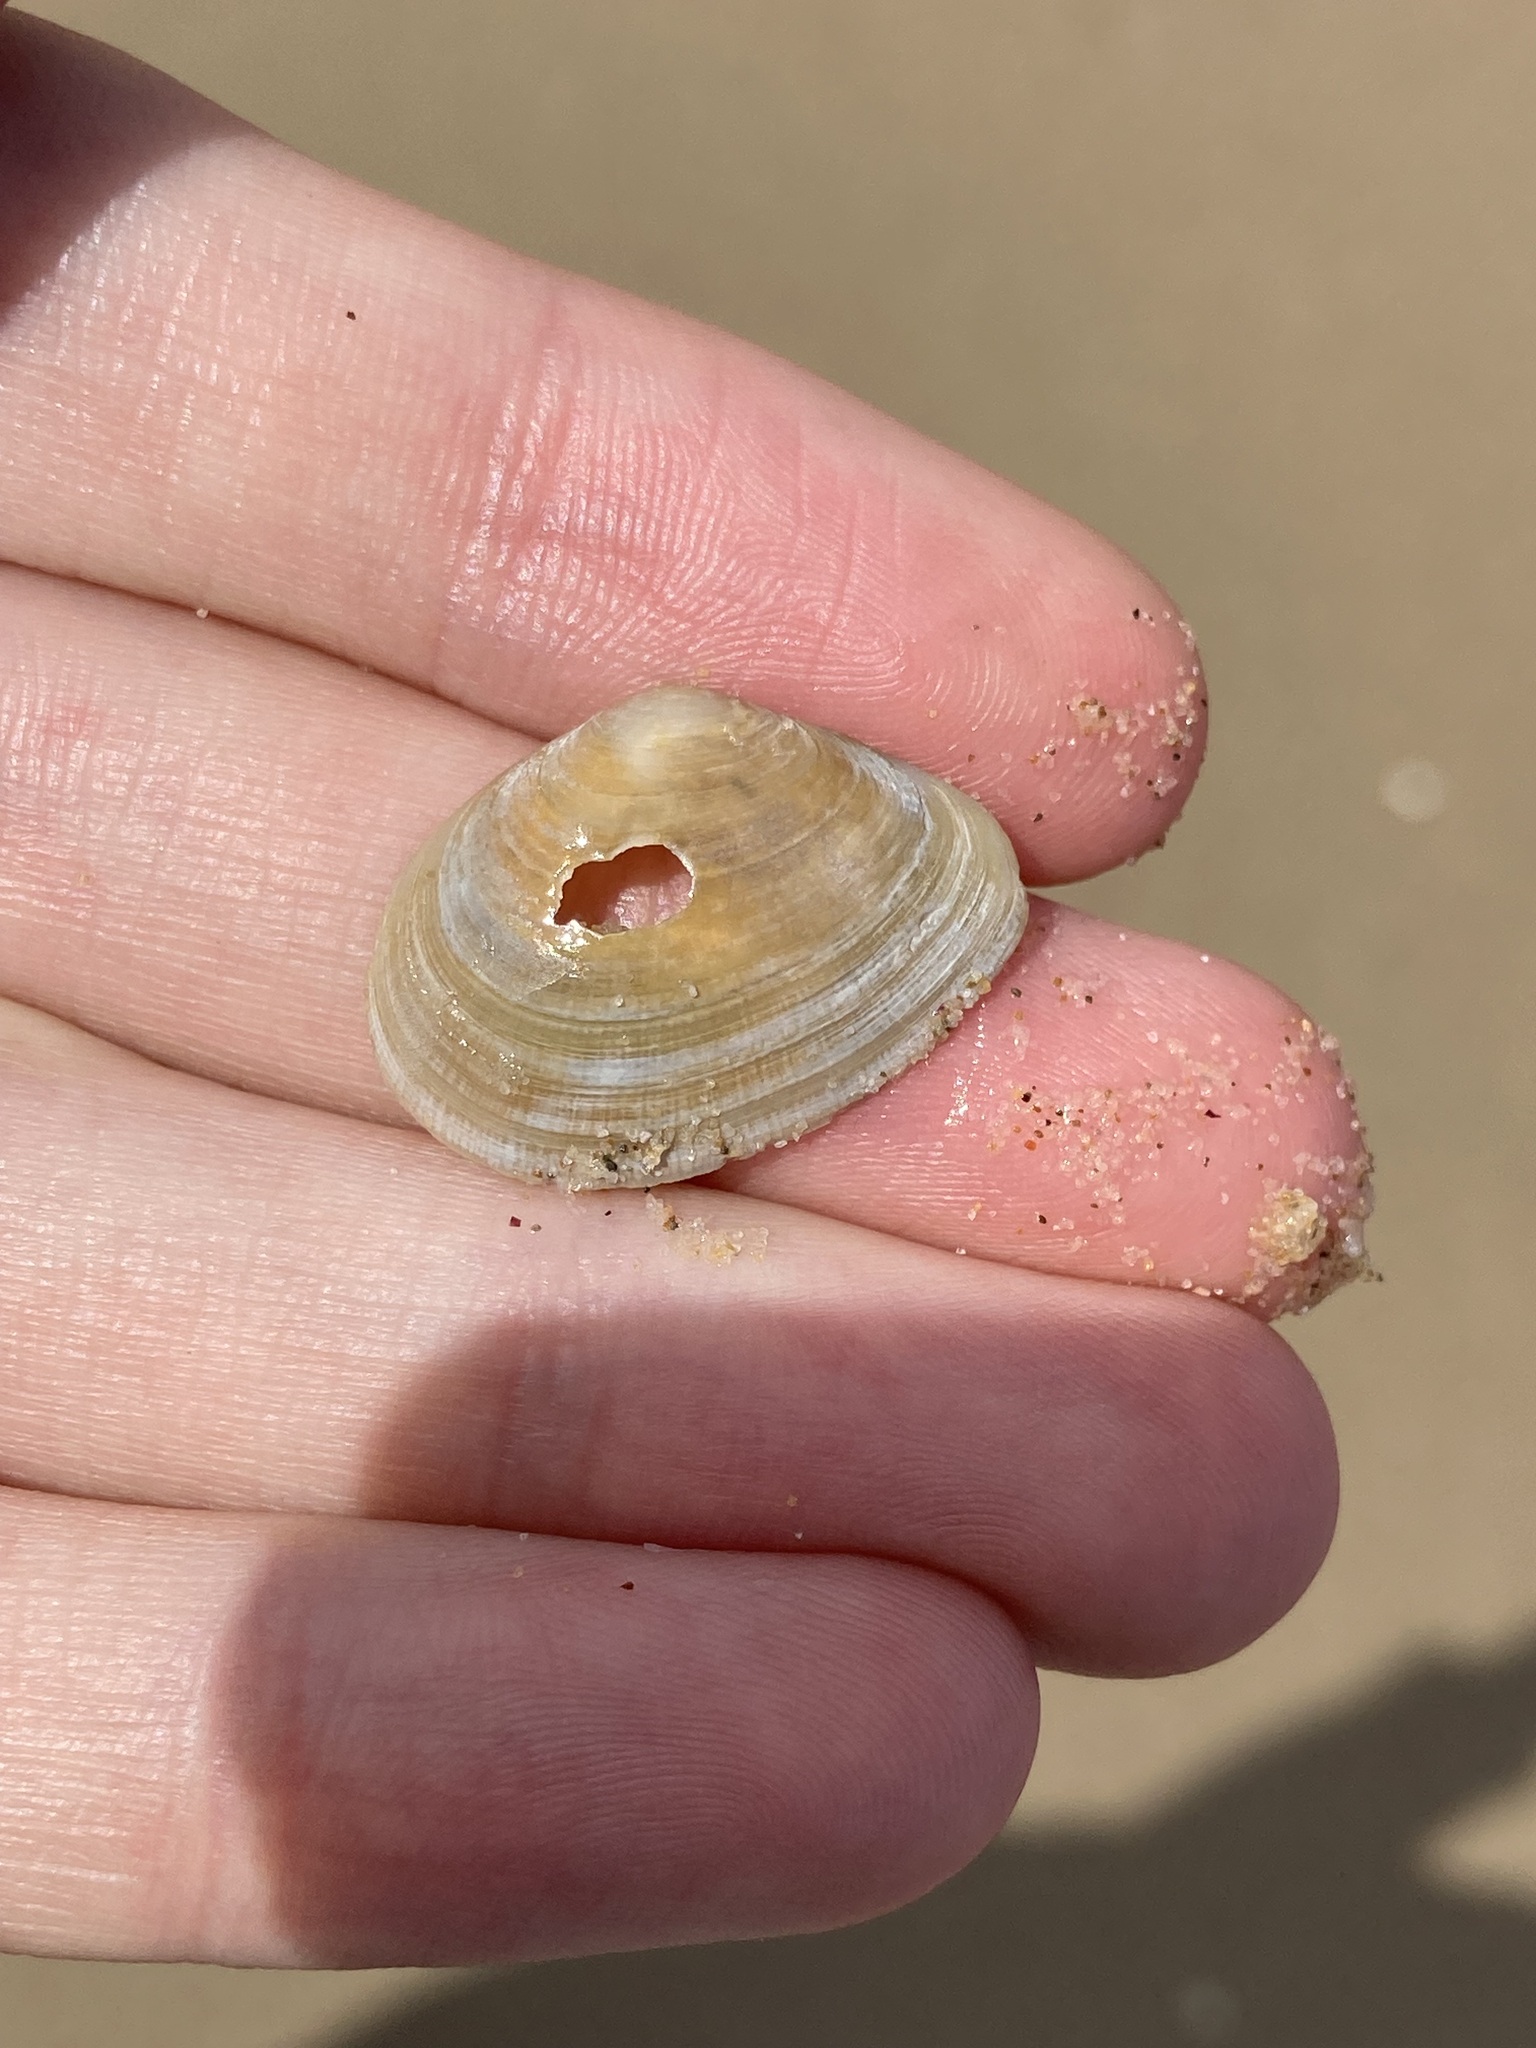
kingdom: Animalia
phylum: Mollusca
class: Bivalvia
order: Cardiida
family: Tellinidae
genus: Macomona
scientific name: Macomona deltoidalis
